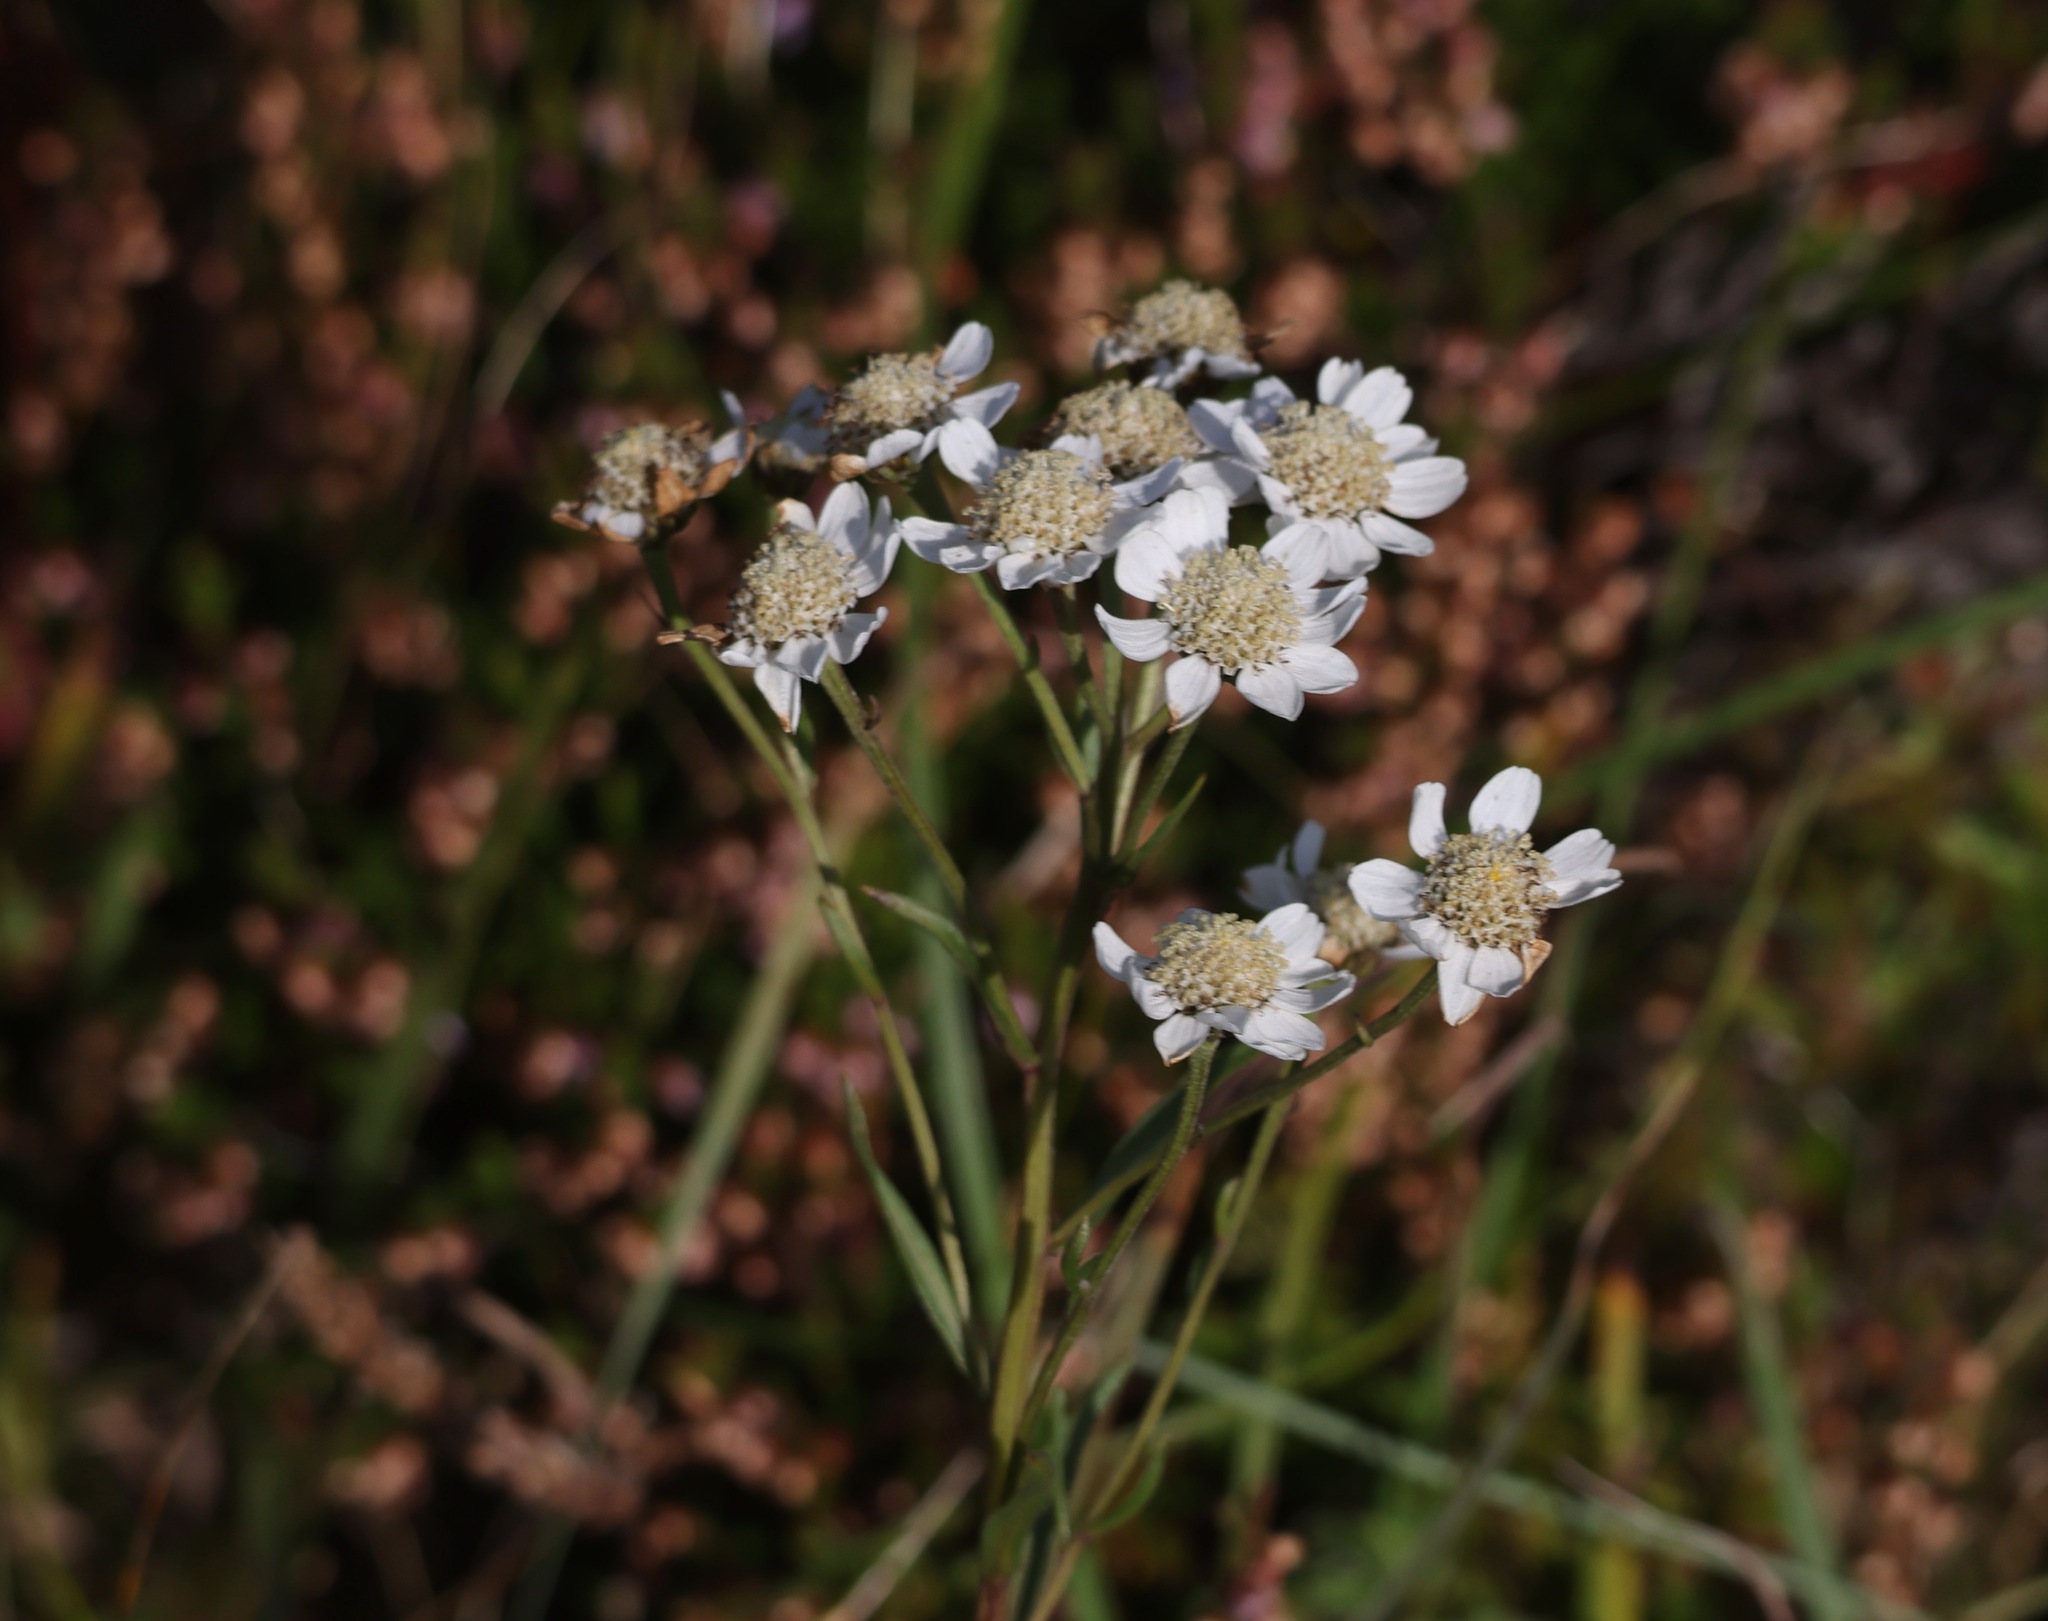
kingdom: Plantae
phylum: Tracheophyta
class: Magnoliopsida
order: Asterales
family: Asteraceae
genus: Achillea
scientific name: Achillea ptarmica
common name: Sneezeweed
